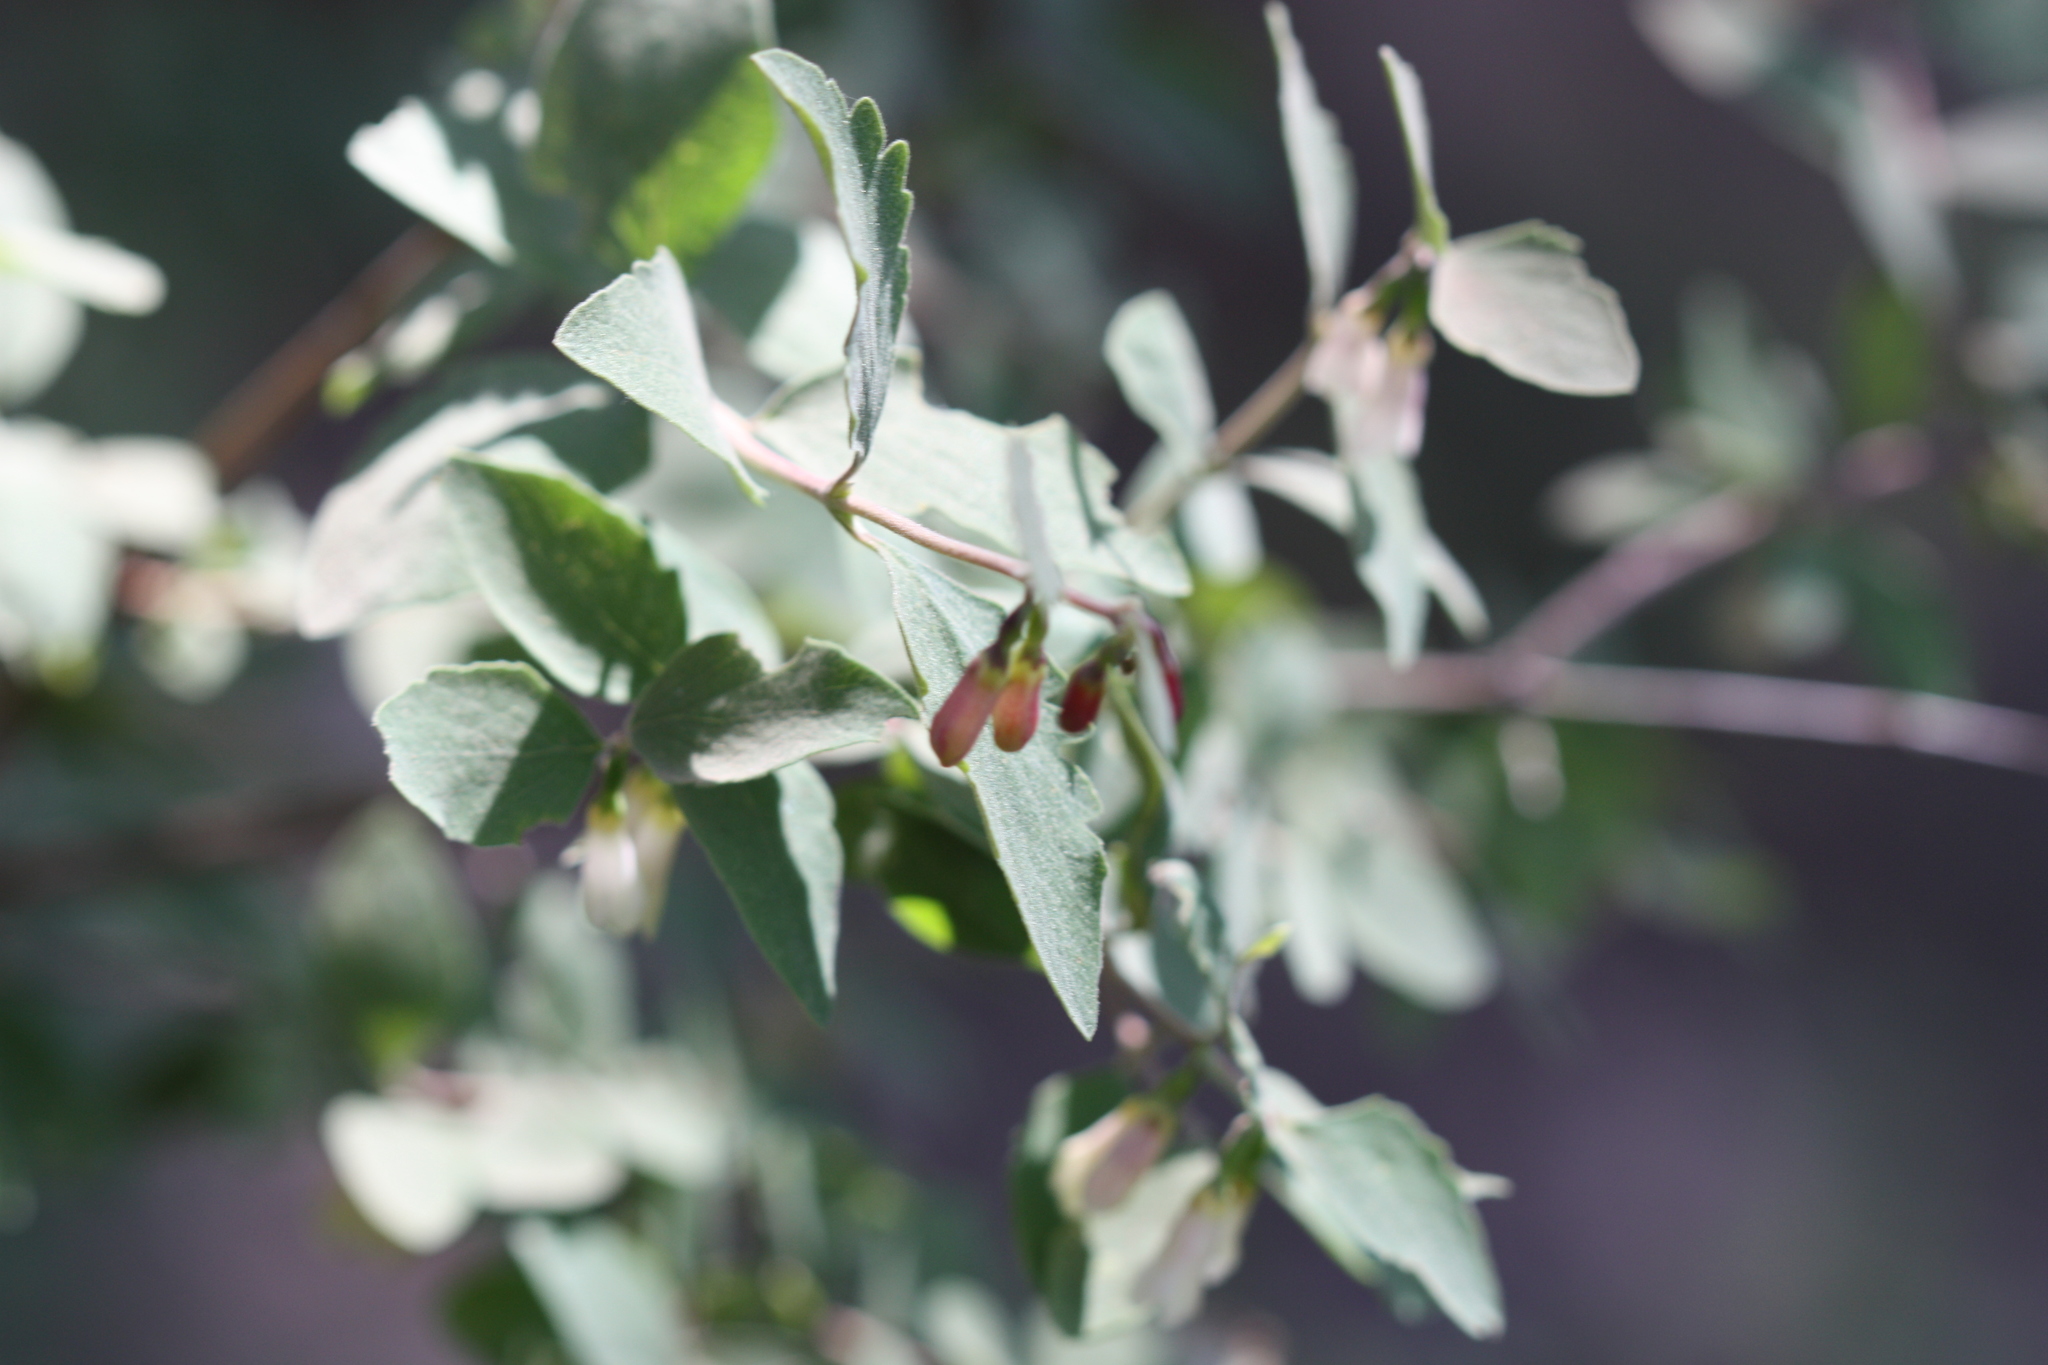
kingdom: Plantae
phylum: Tracheophyta
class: Magnoliopsida
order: Dipsacales
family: Caprifoliaceae
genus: Symphoricarpos
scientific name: Symphoricarpos rotundifolius
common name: Round-leaved snowberry
